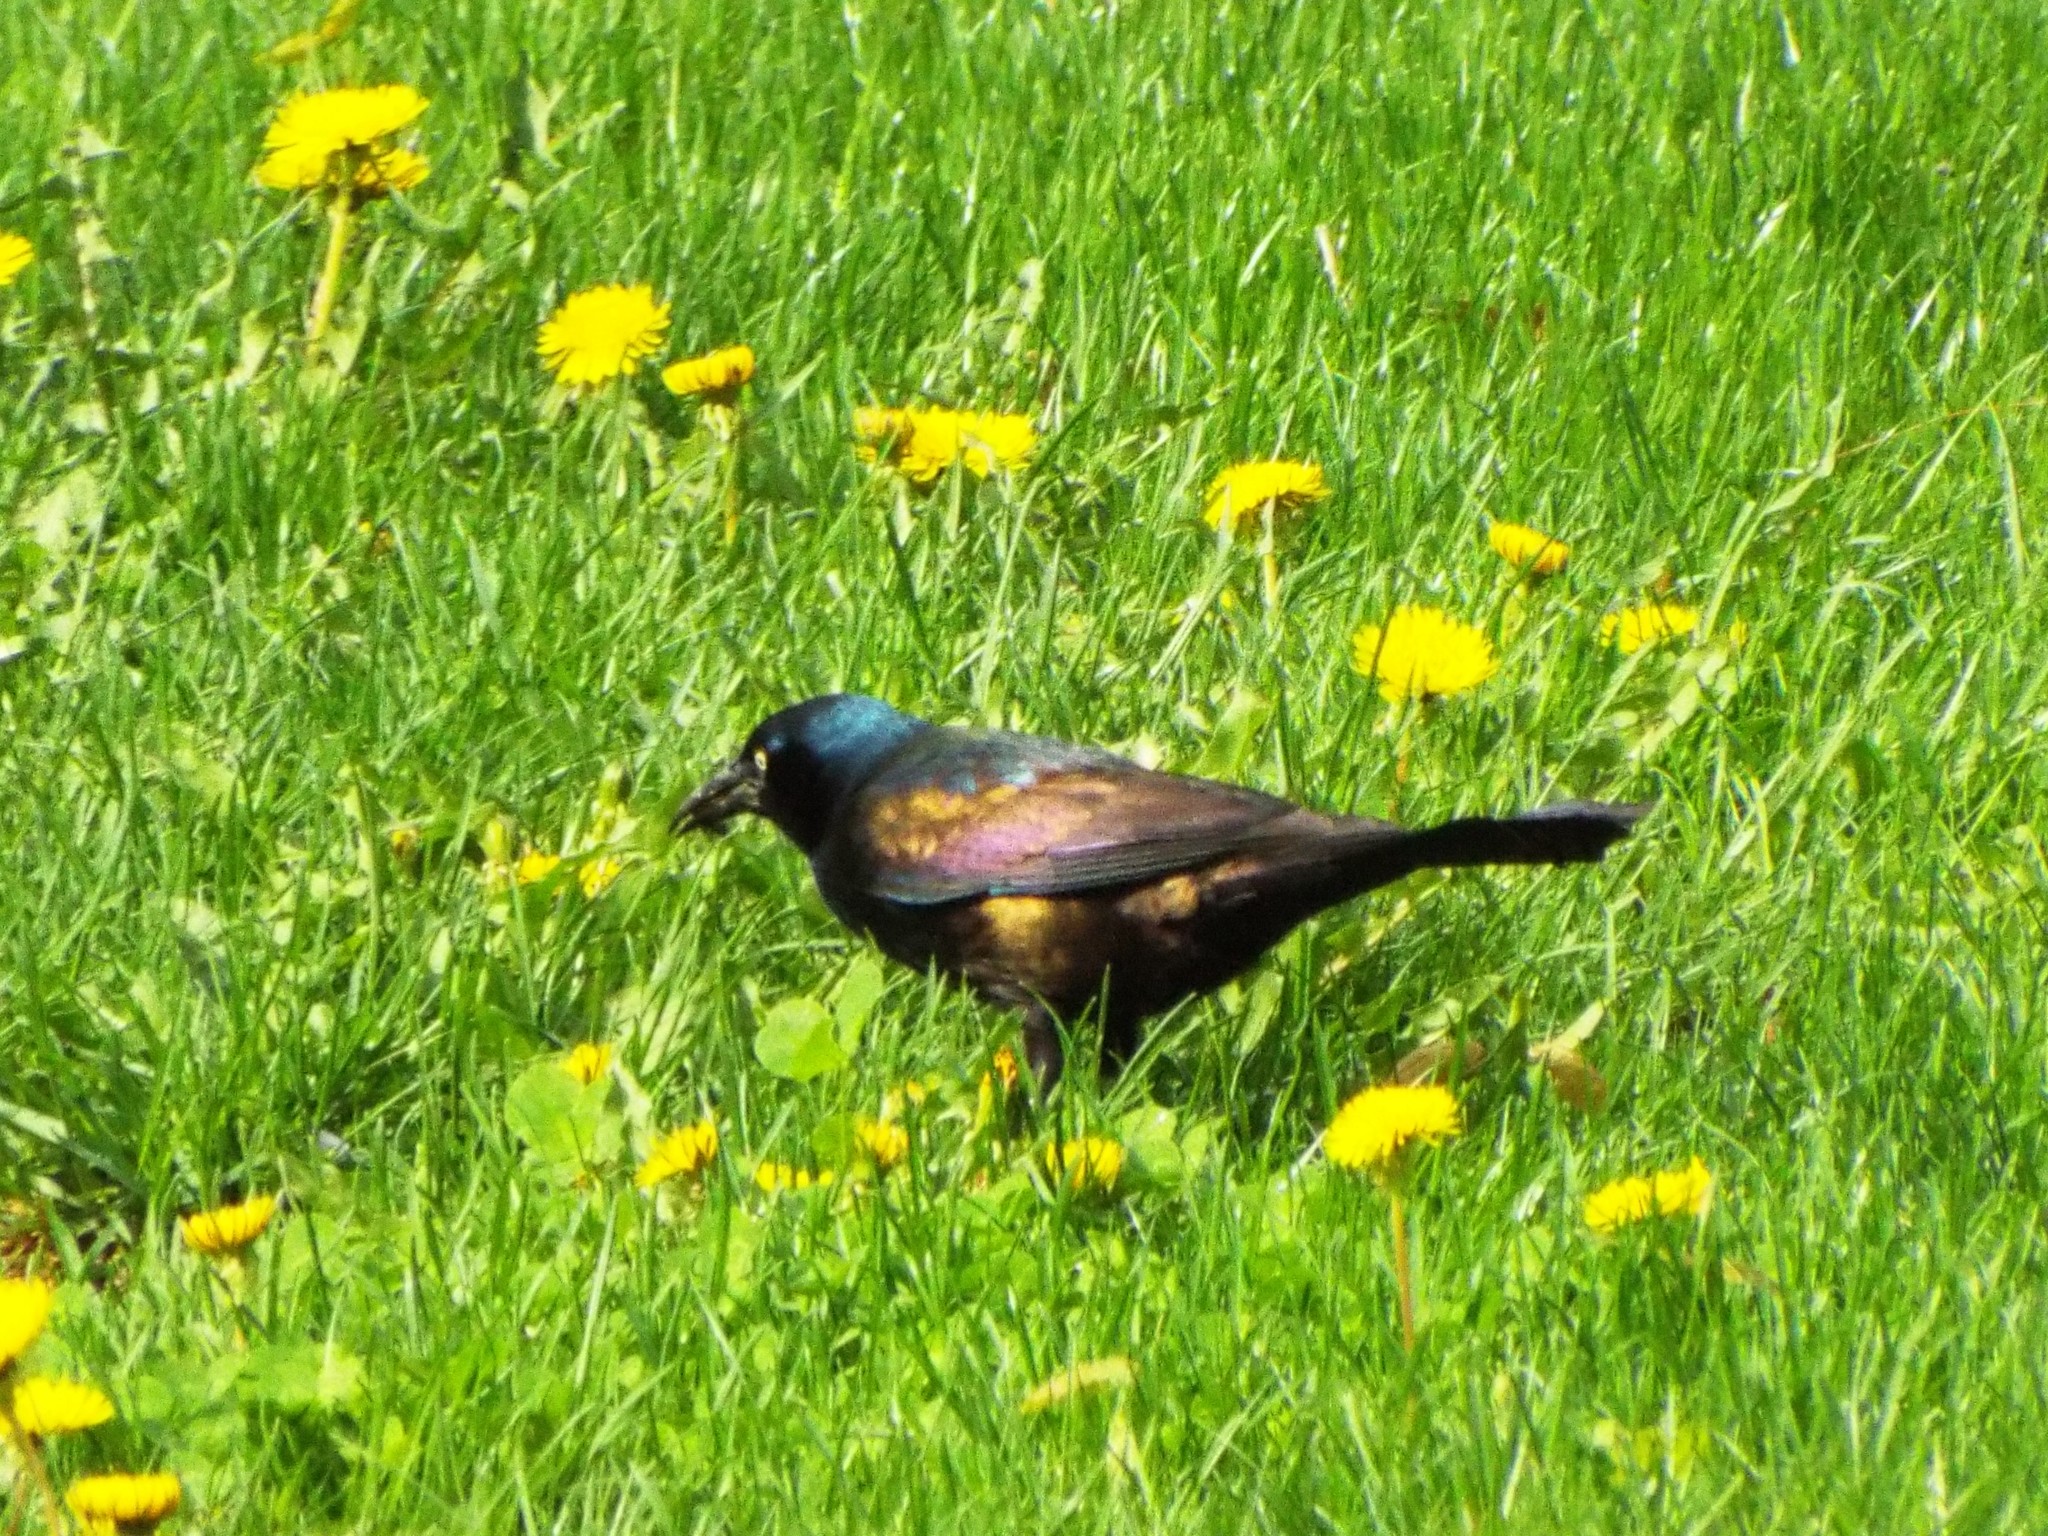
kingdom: Animalia
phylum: Chordata
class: Aves
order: Passeriformes
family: Icteridae
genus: Quiscalus
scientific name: Quiscalus quiscula
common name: Common grackle
